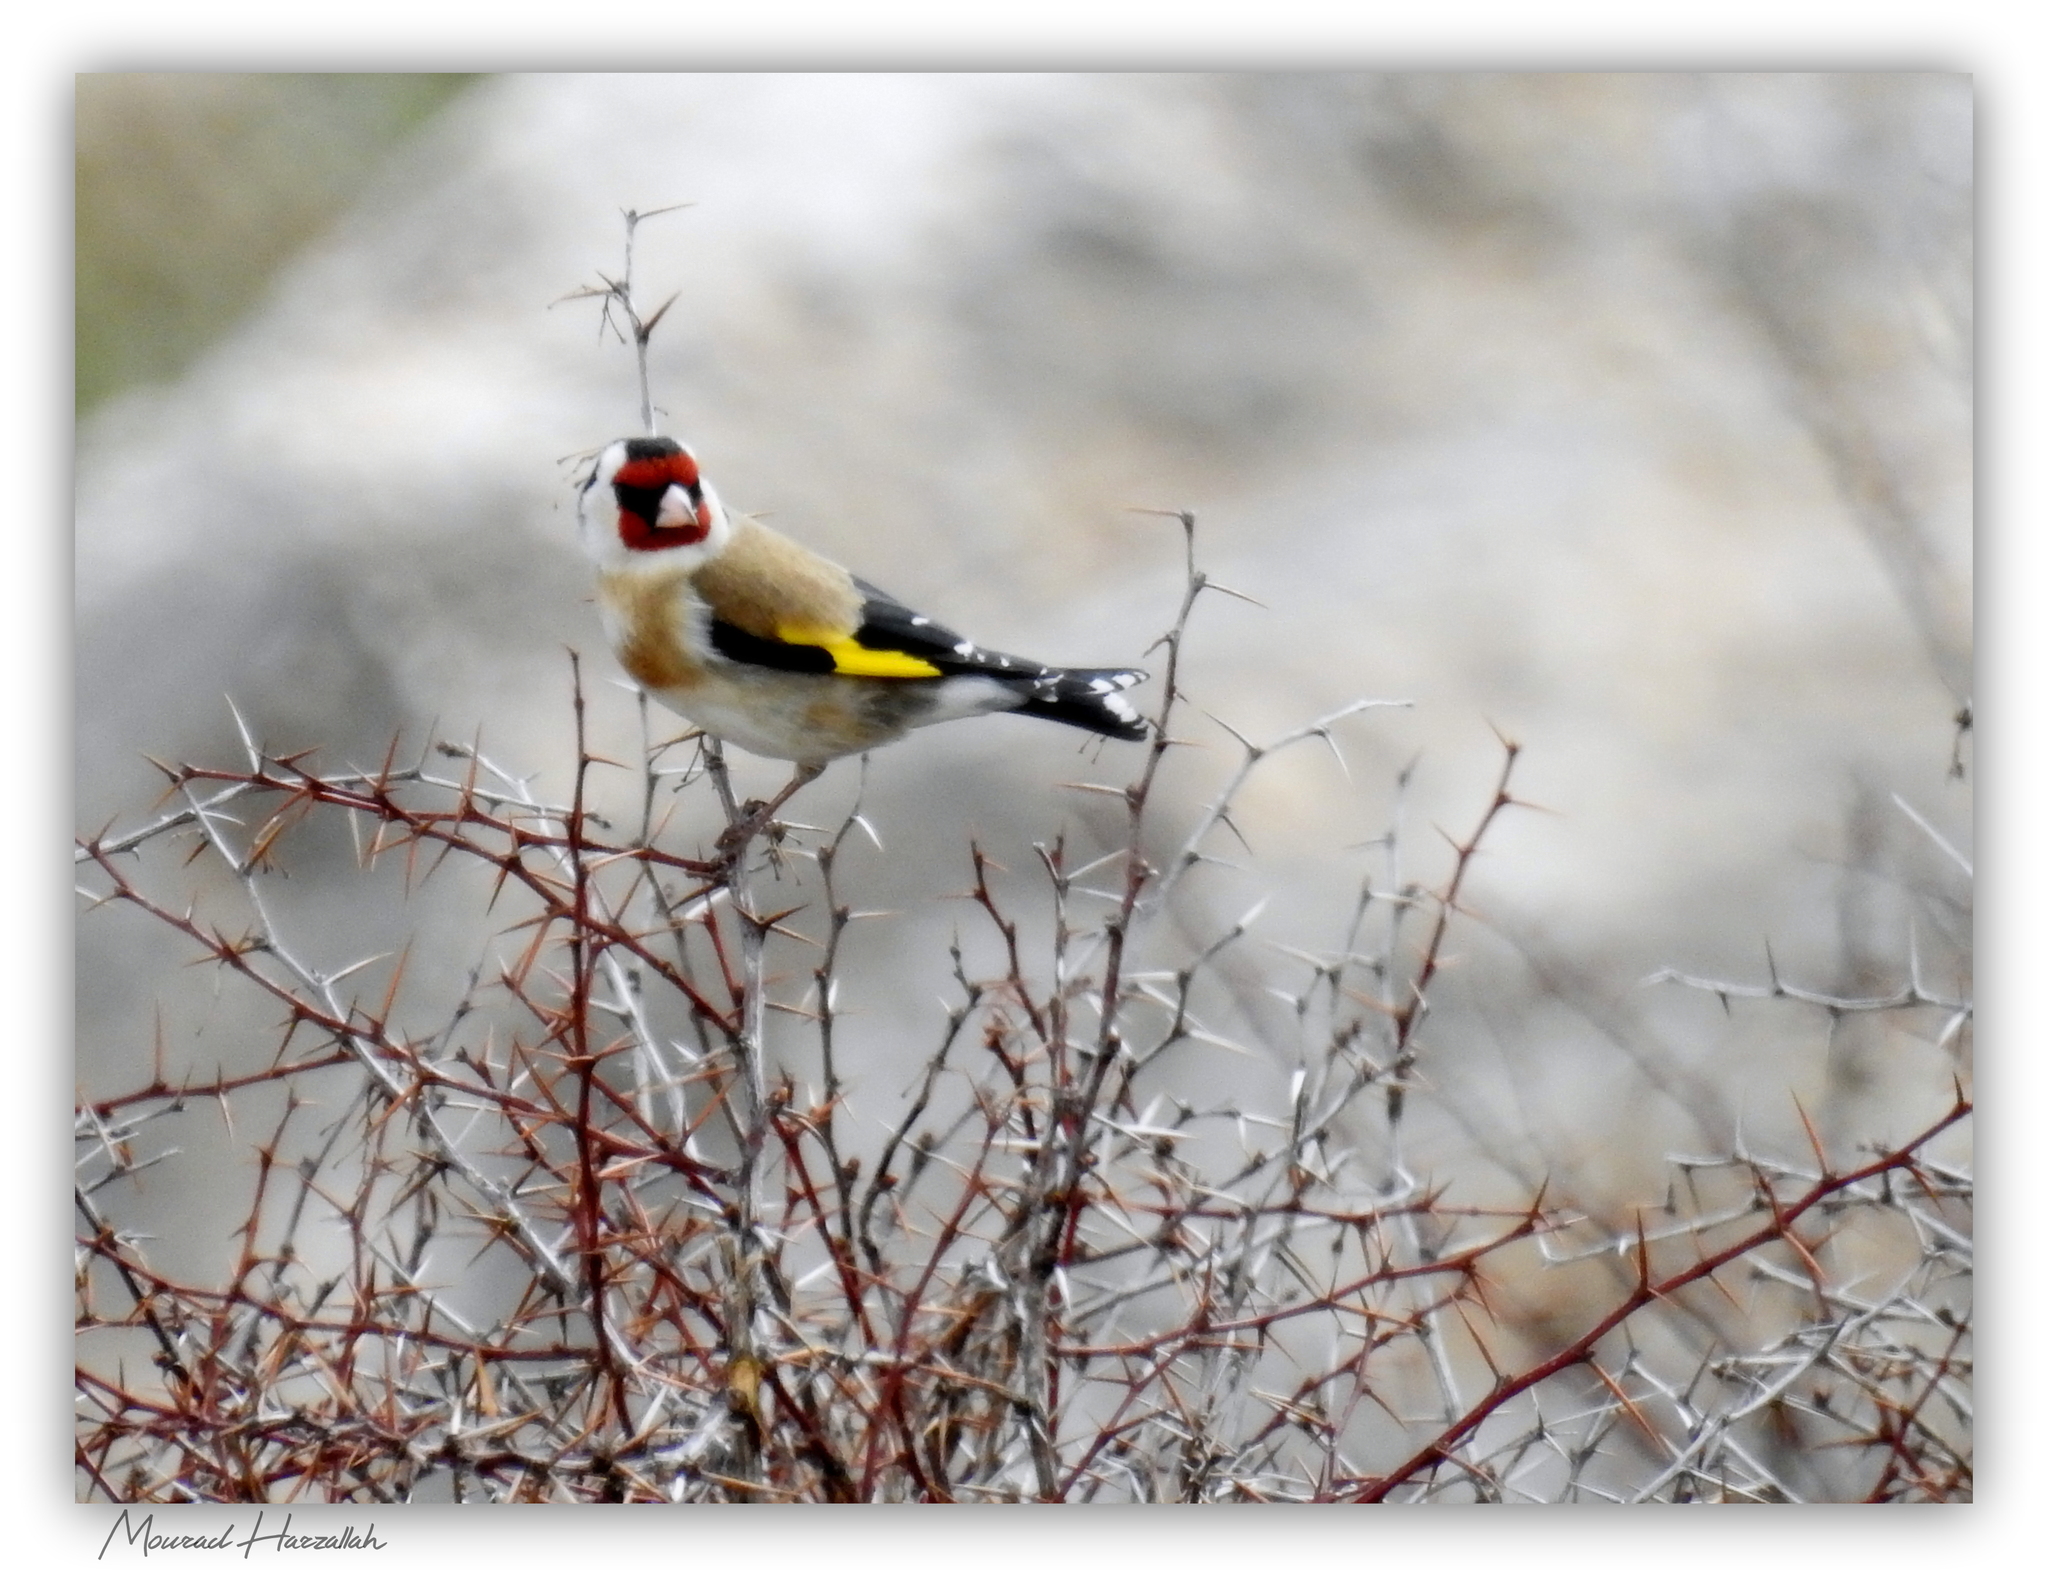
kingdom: Animalia
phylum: Chordata
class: Aves
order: Passeriformes
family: Fringillidae
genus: Carduelis
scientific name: Carduelis carduelis
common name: European goldfinch
